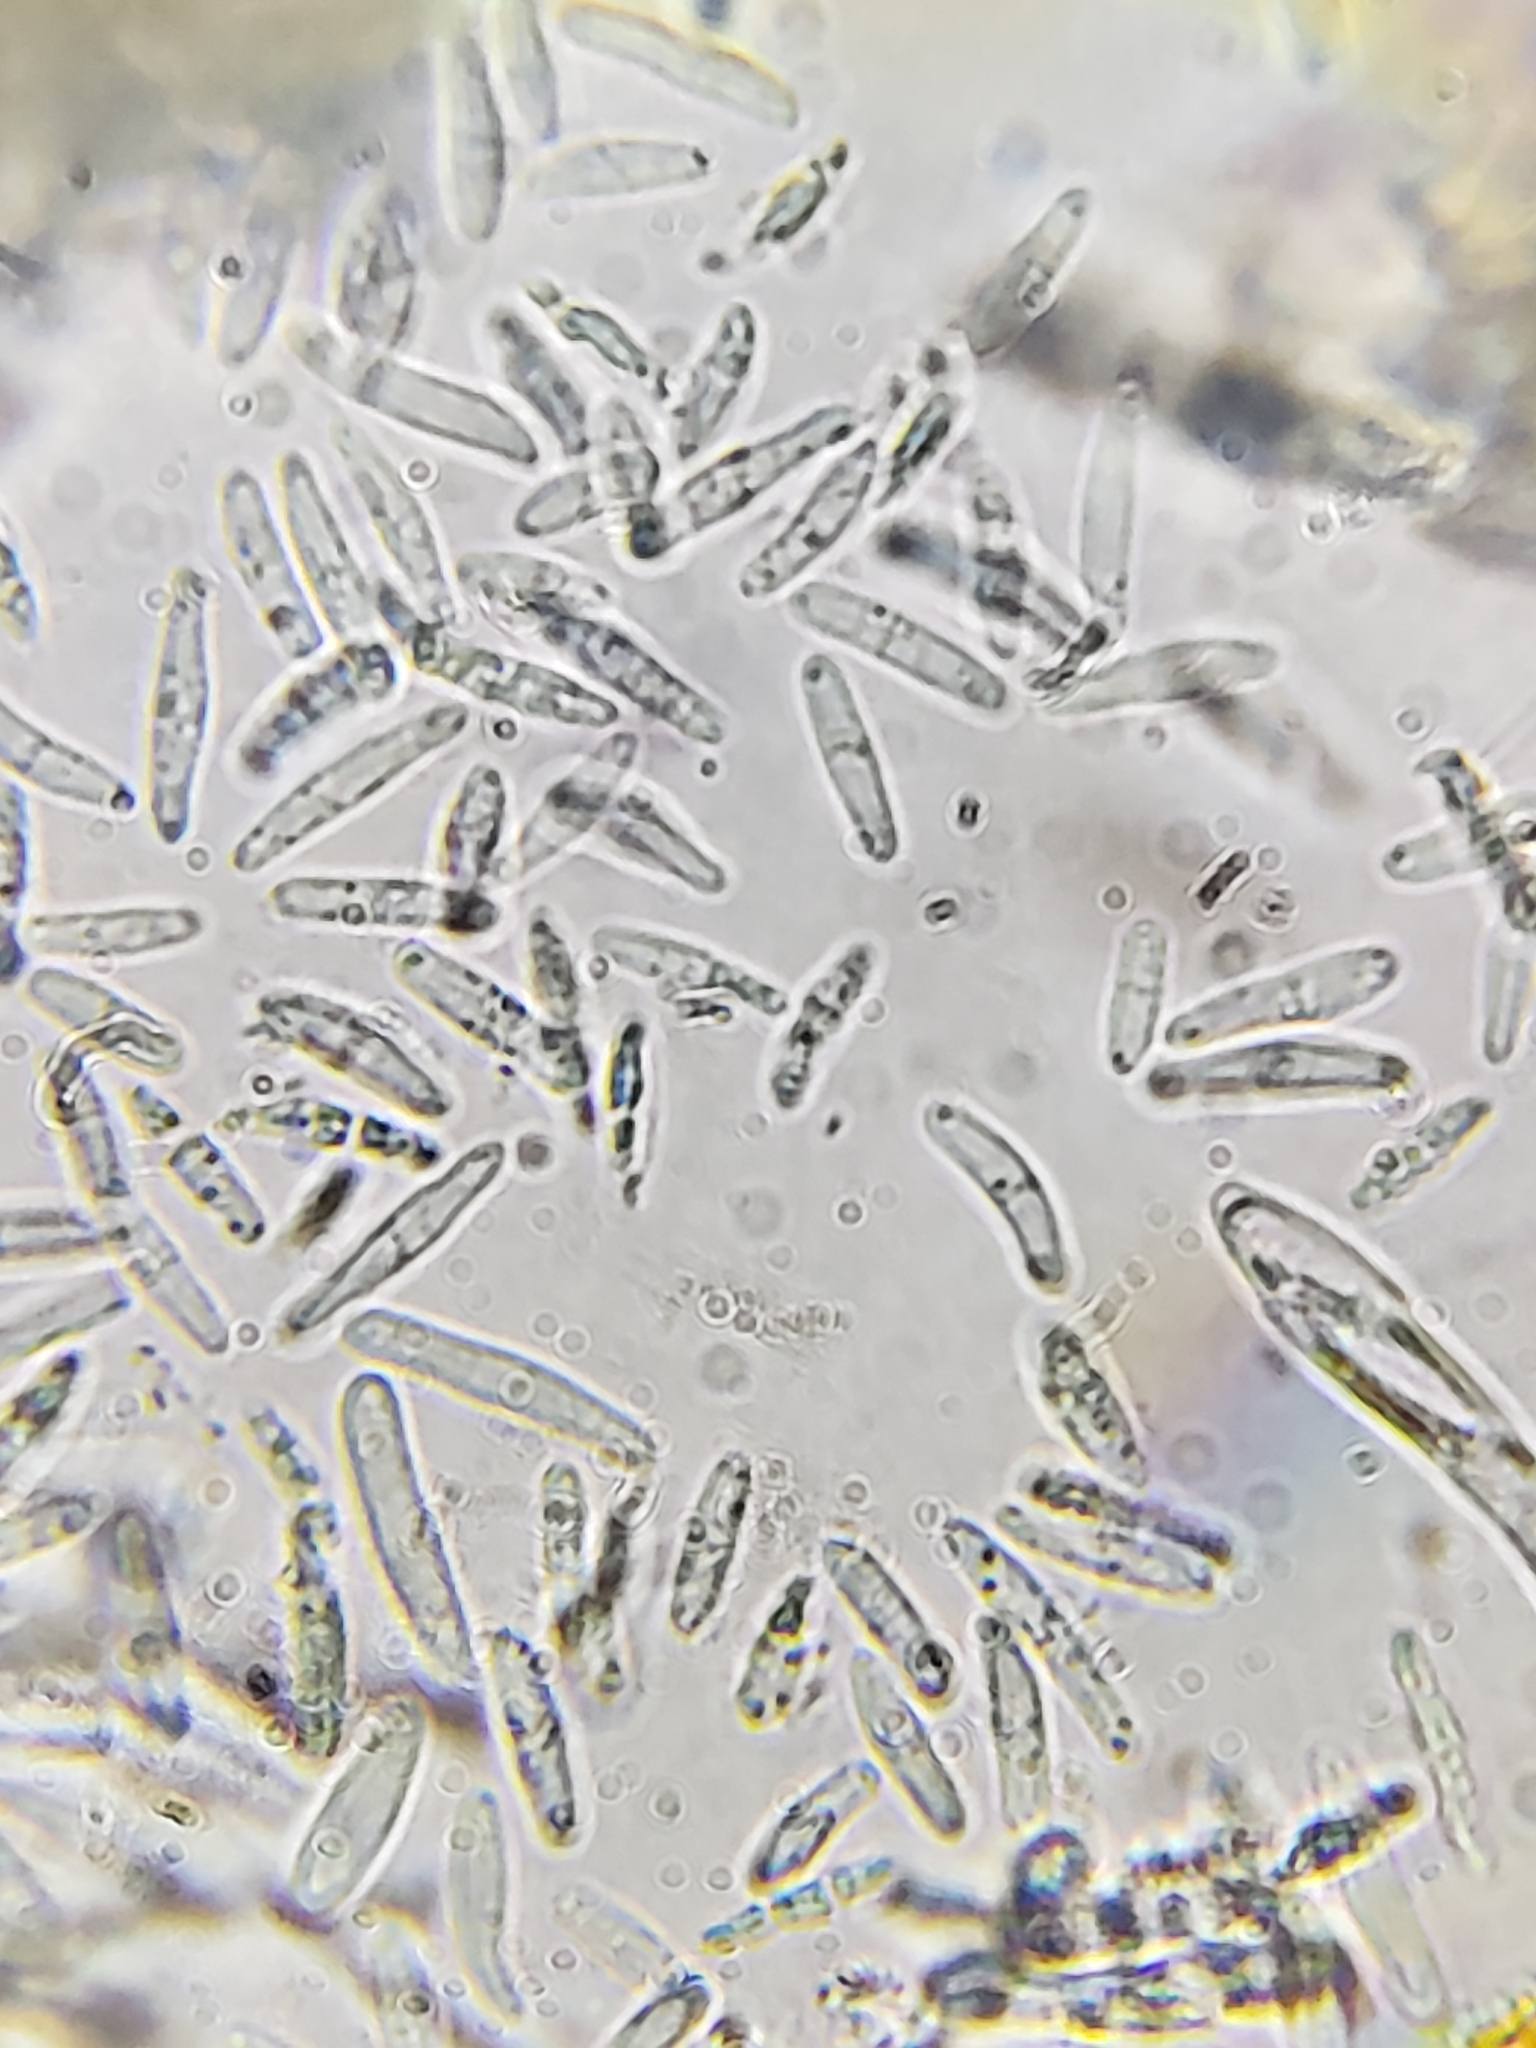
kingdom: Fungi
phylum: Ascomycota
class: Leotiomycetes
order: Helotiales
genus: Angelina
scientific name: Angelina rufescens
